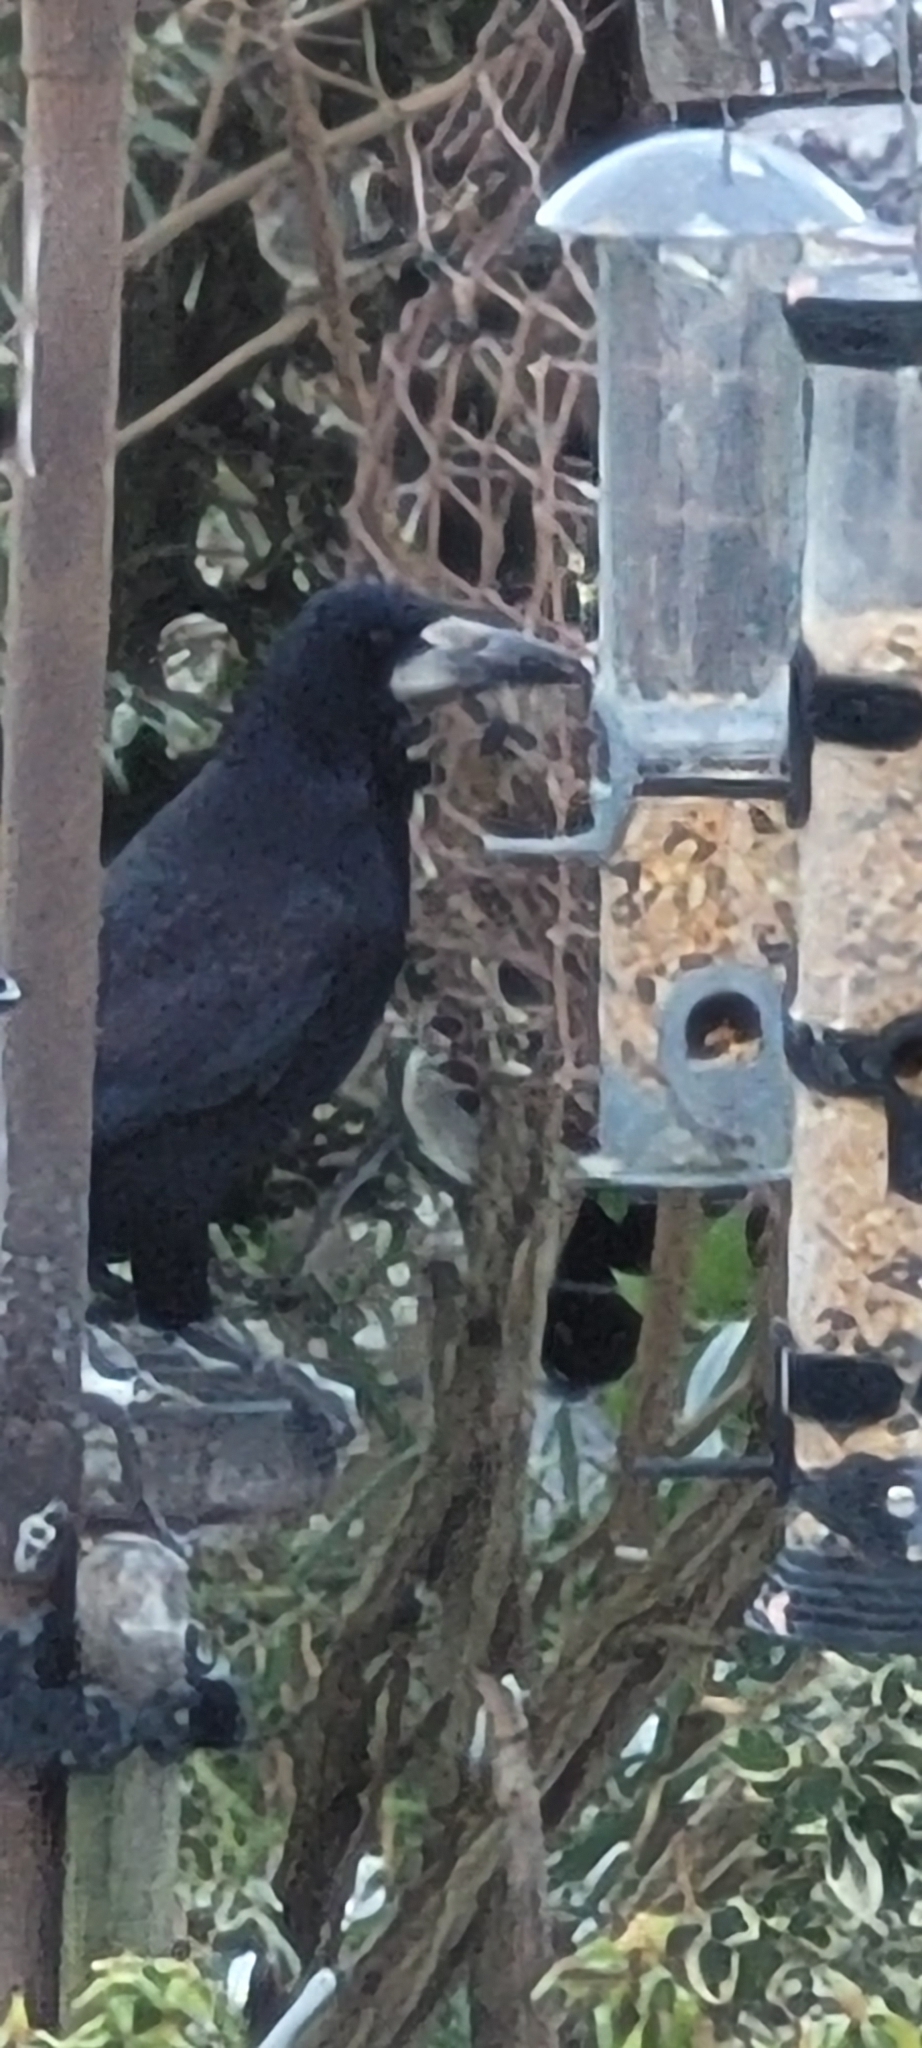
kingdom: Animalia
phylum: Chordata
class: Aves
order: Passeriformes
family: Corvidae
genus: Corvus
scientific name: Corvus frugilegus
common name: Rook
